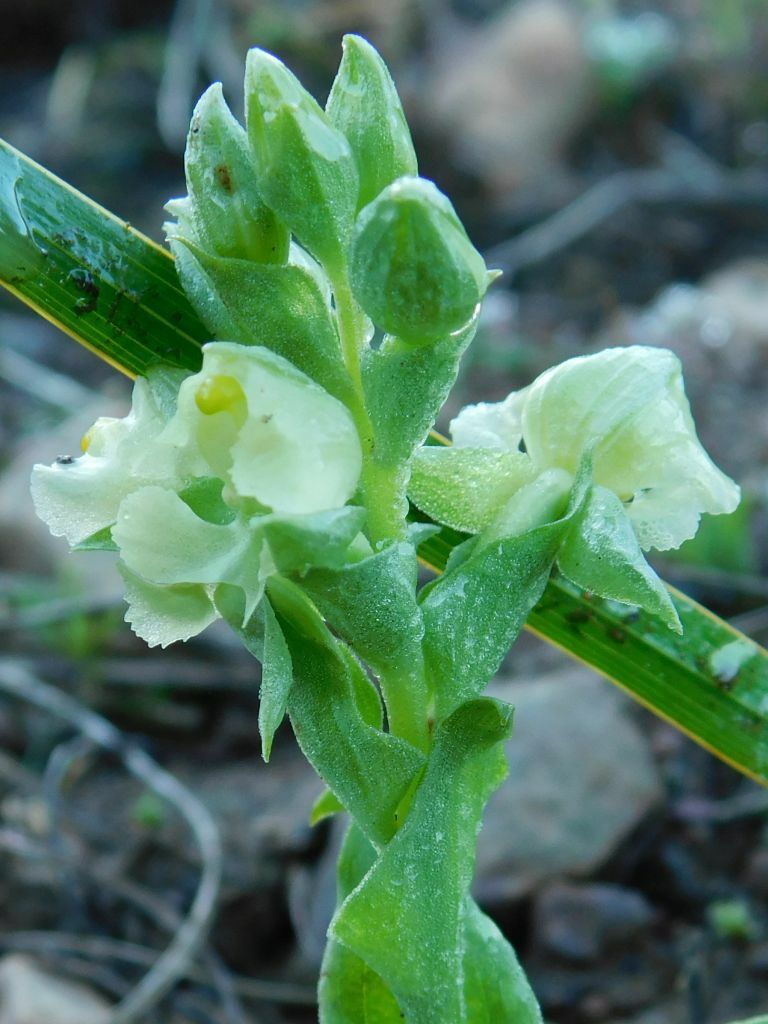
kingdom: Plantae
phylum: Tracheophyta
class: Liliopsida
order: Asparagales
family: Orchidaceae
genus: Pterygodium
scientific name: Pterygodium alatum
